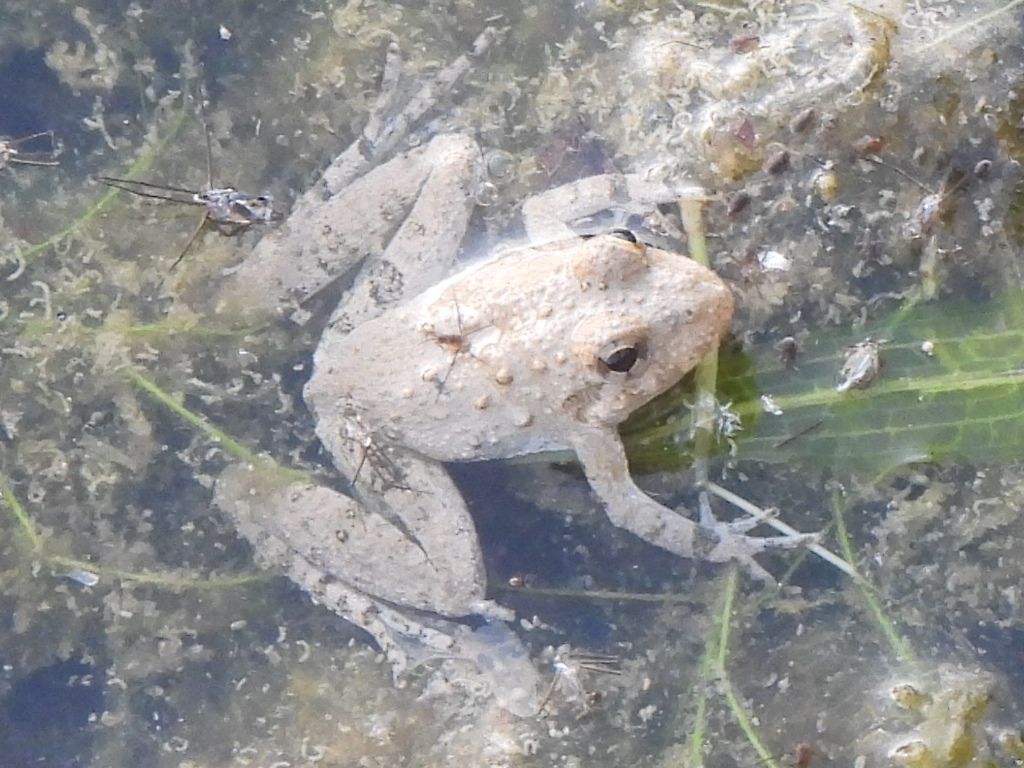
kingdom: Animalia
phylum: Chordata
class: Amphibia
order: Anura
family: Hylidae
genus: Acris
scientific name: Acris blanchardi
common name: Blanchard's cricket frog
